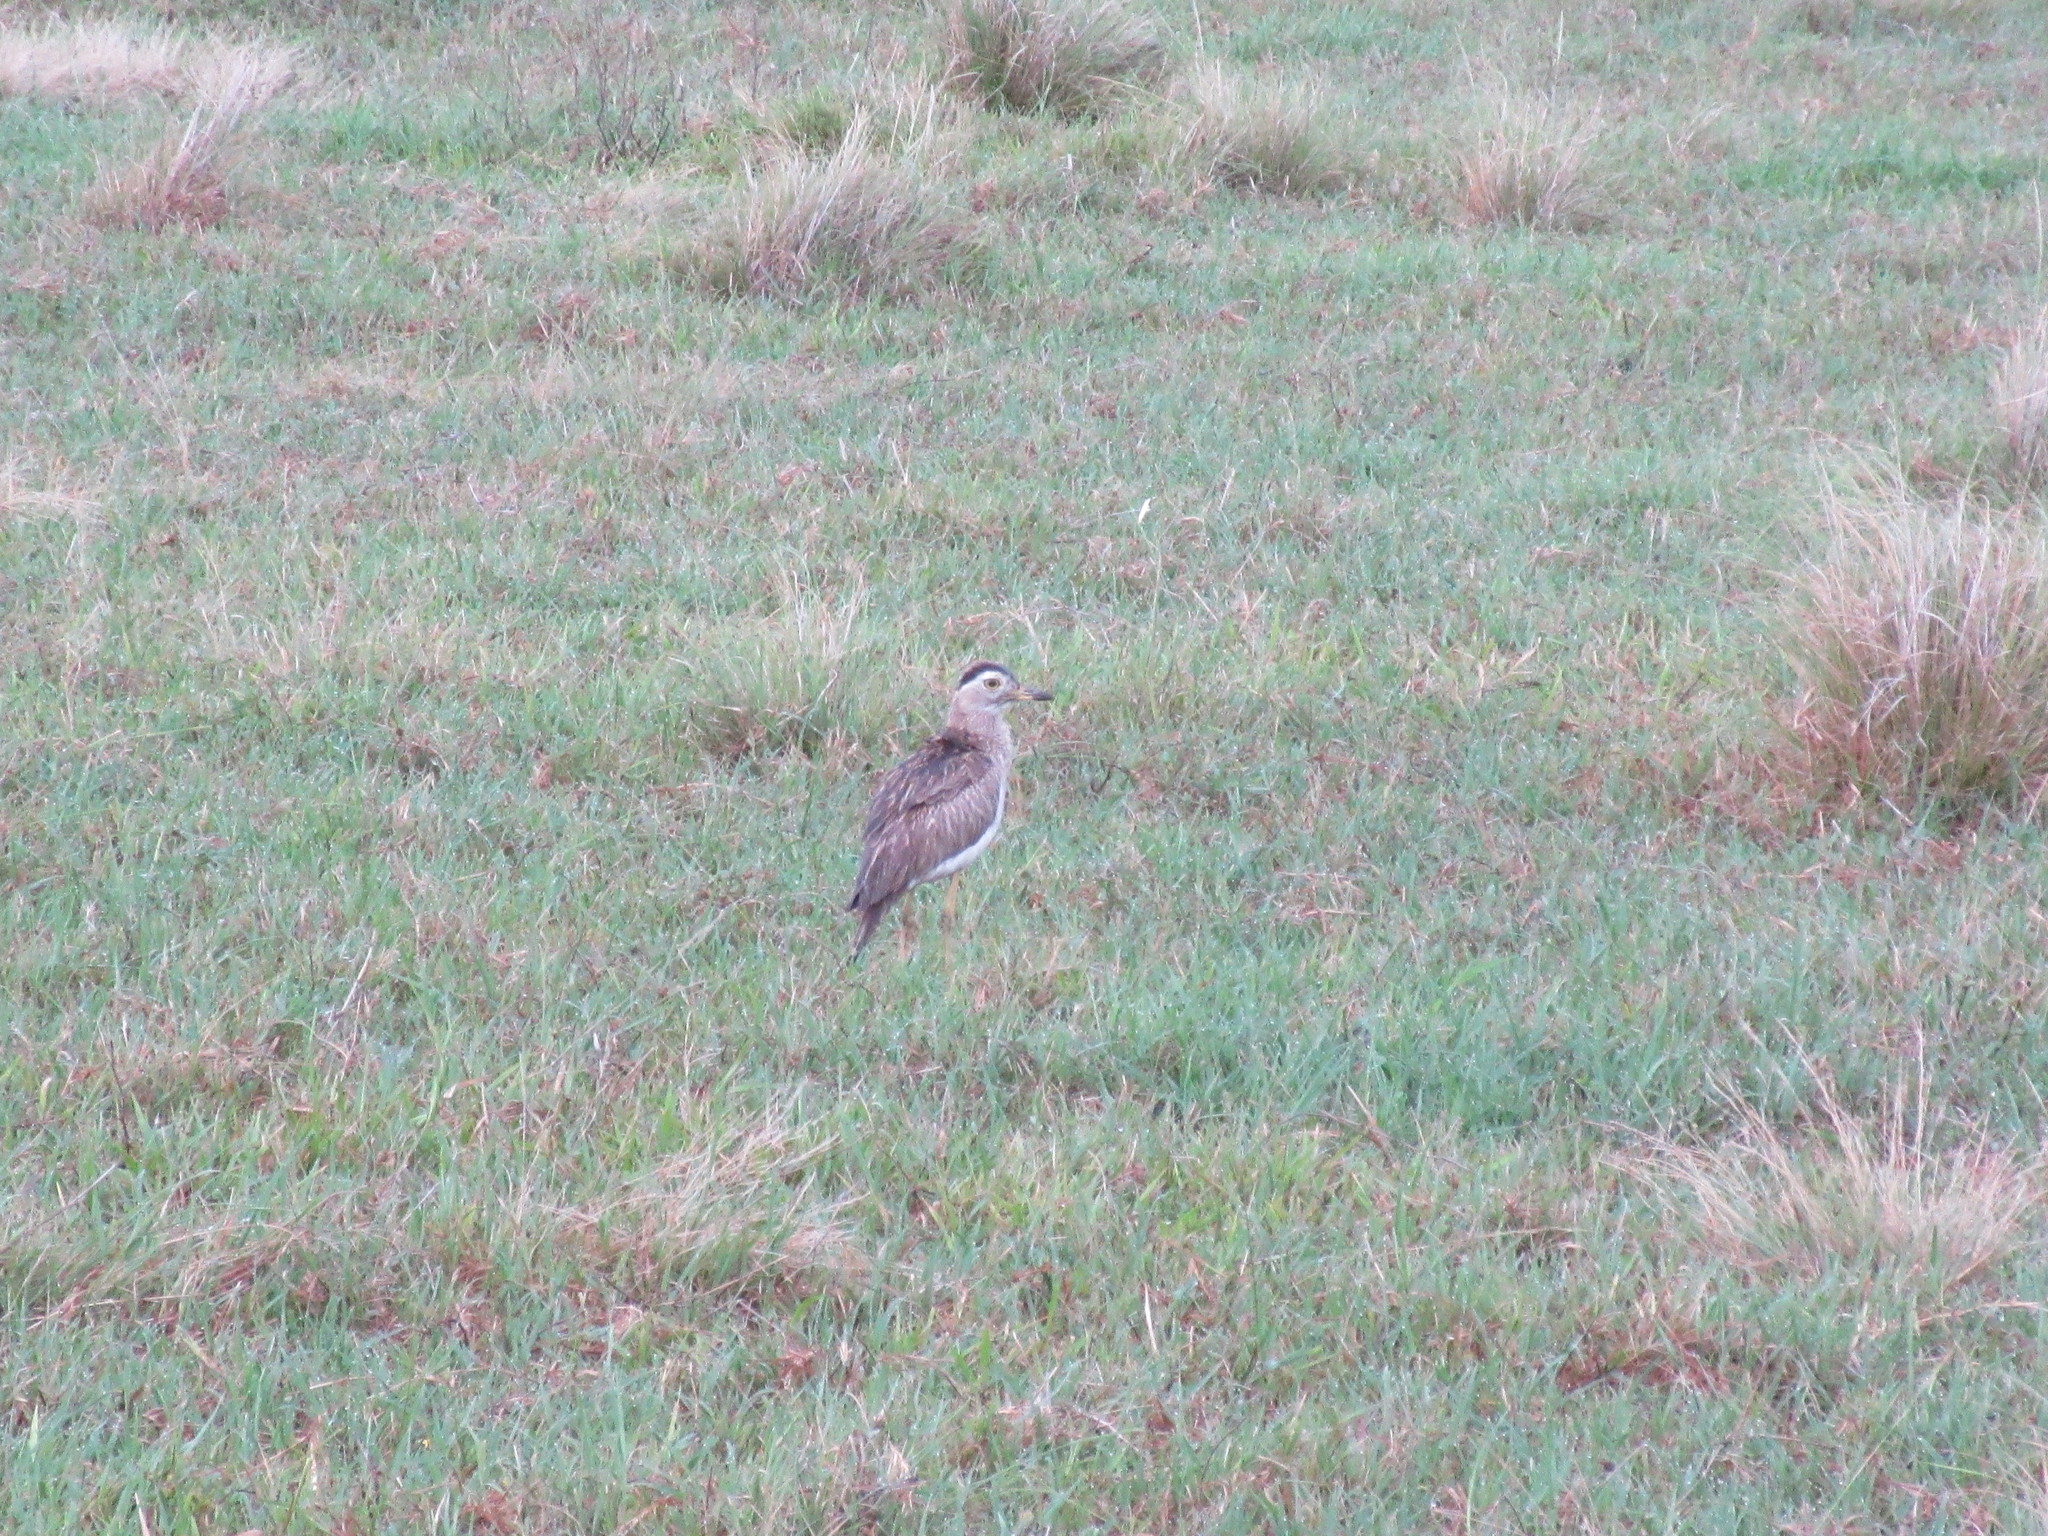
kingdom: Animalia
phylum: Chordata
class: Aves
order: Charadriiformes
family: Burhinidae
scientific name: Burhinidae
